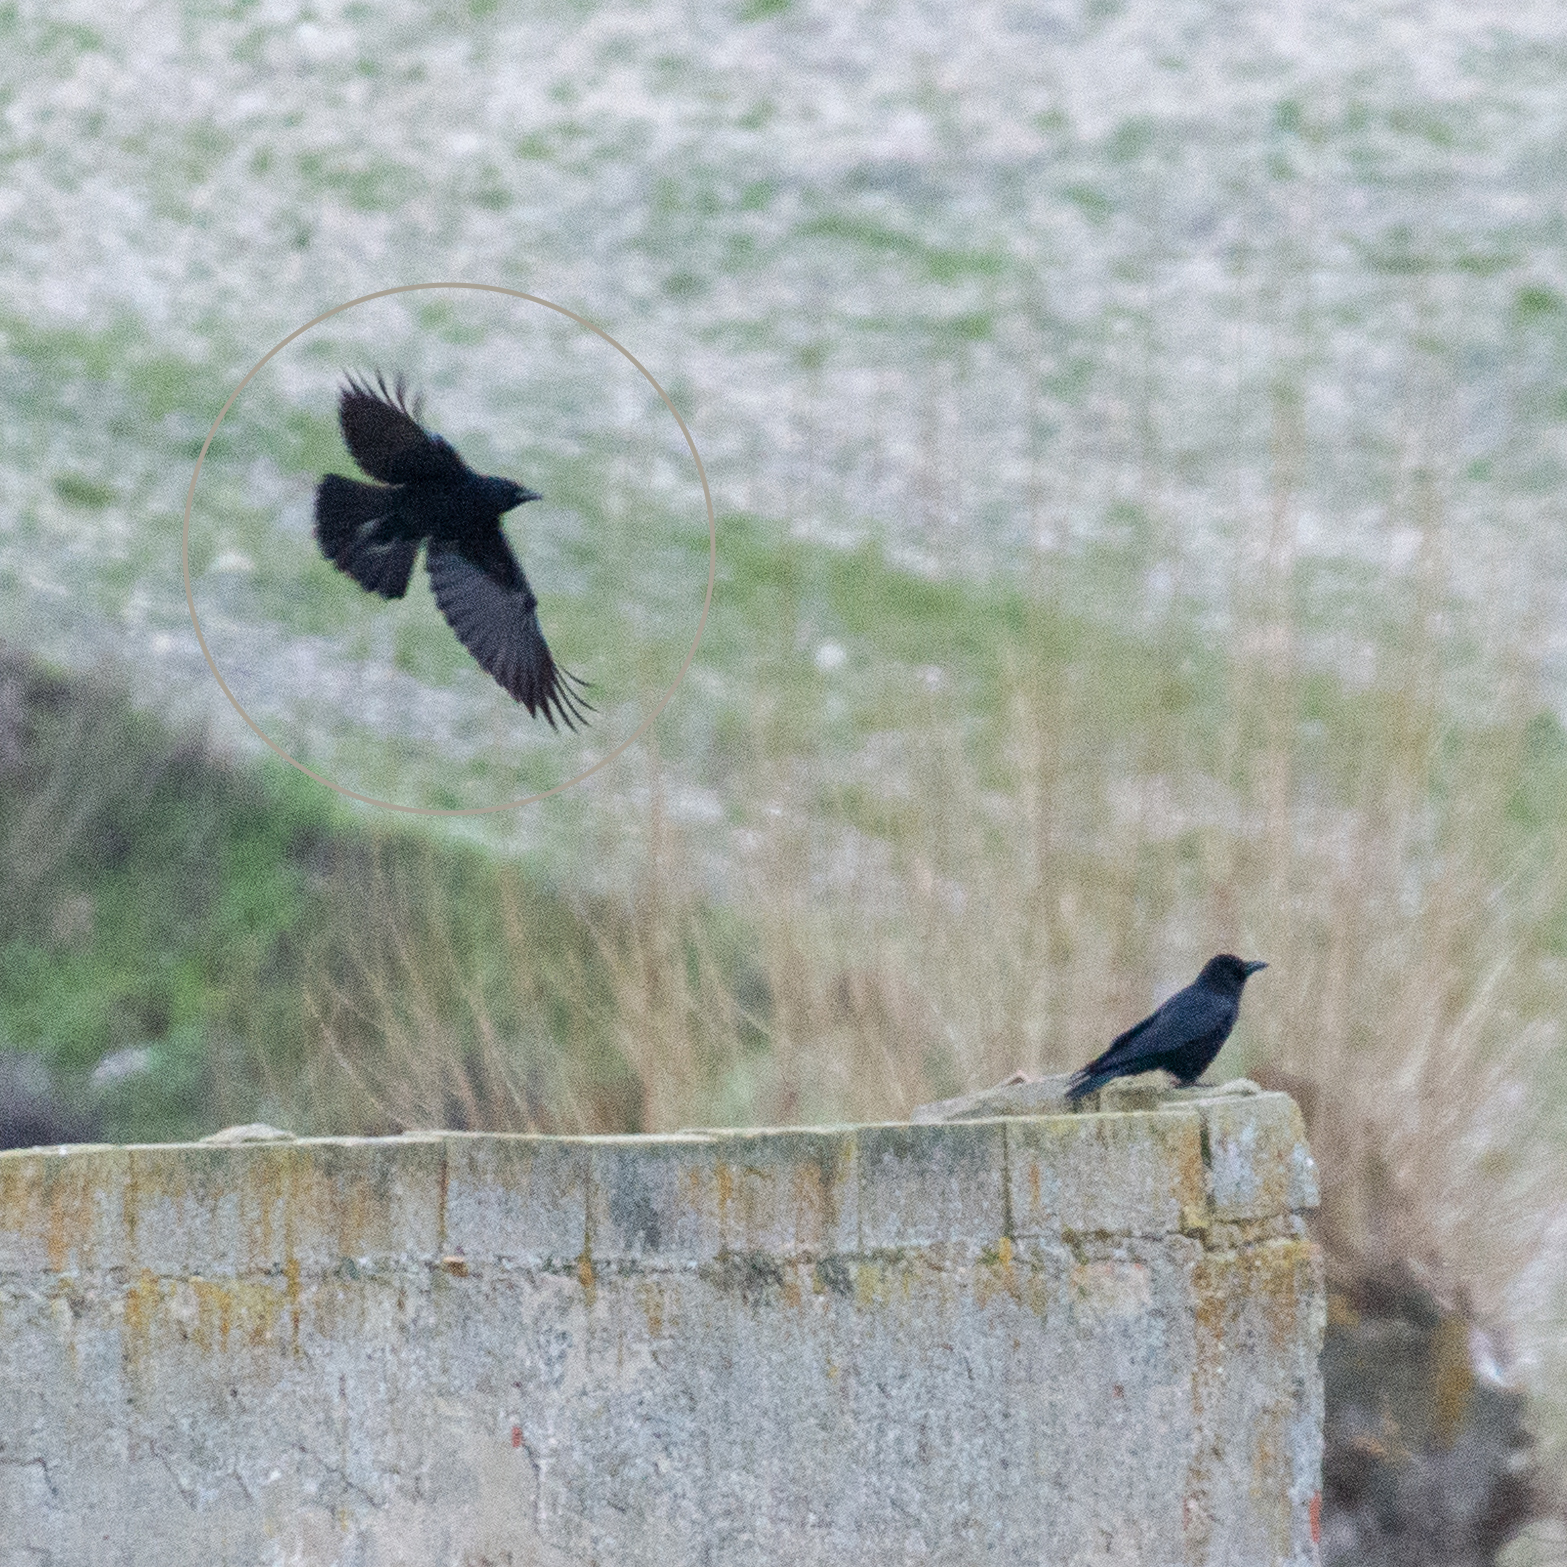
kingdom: Animalia
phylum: Chordata
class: Aves
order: Passeriformes
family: Corvidae
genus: Corvus
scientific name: Corvus corone
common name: Carrion crow
